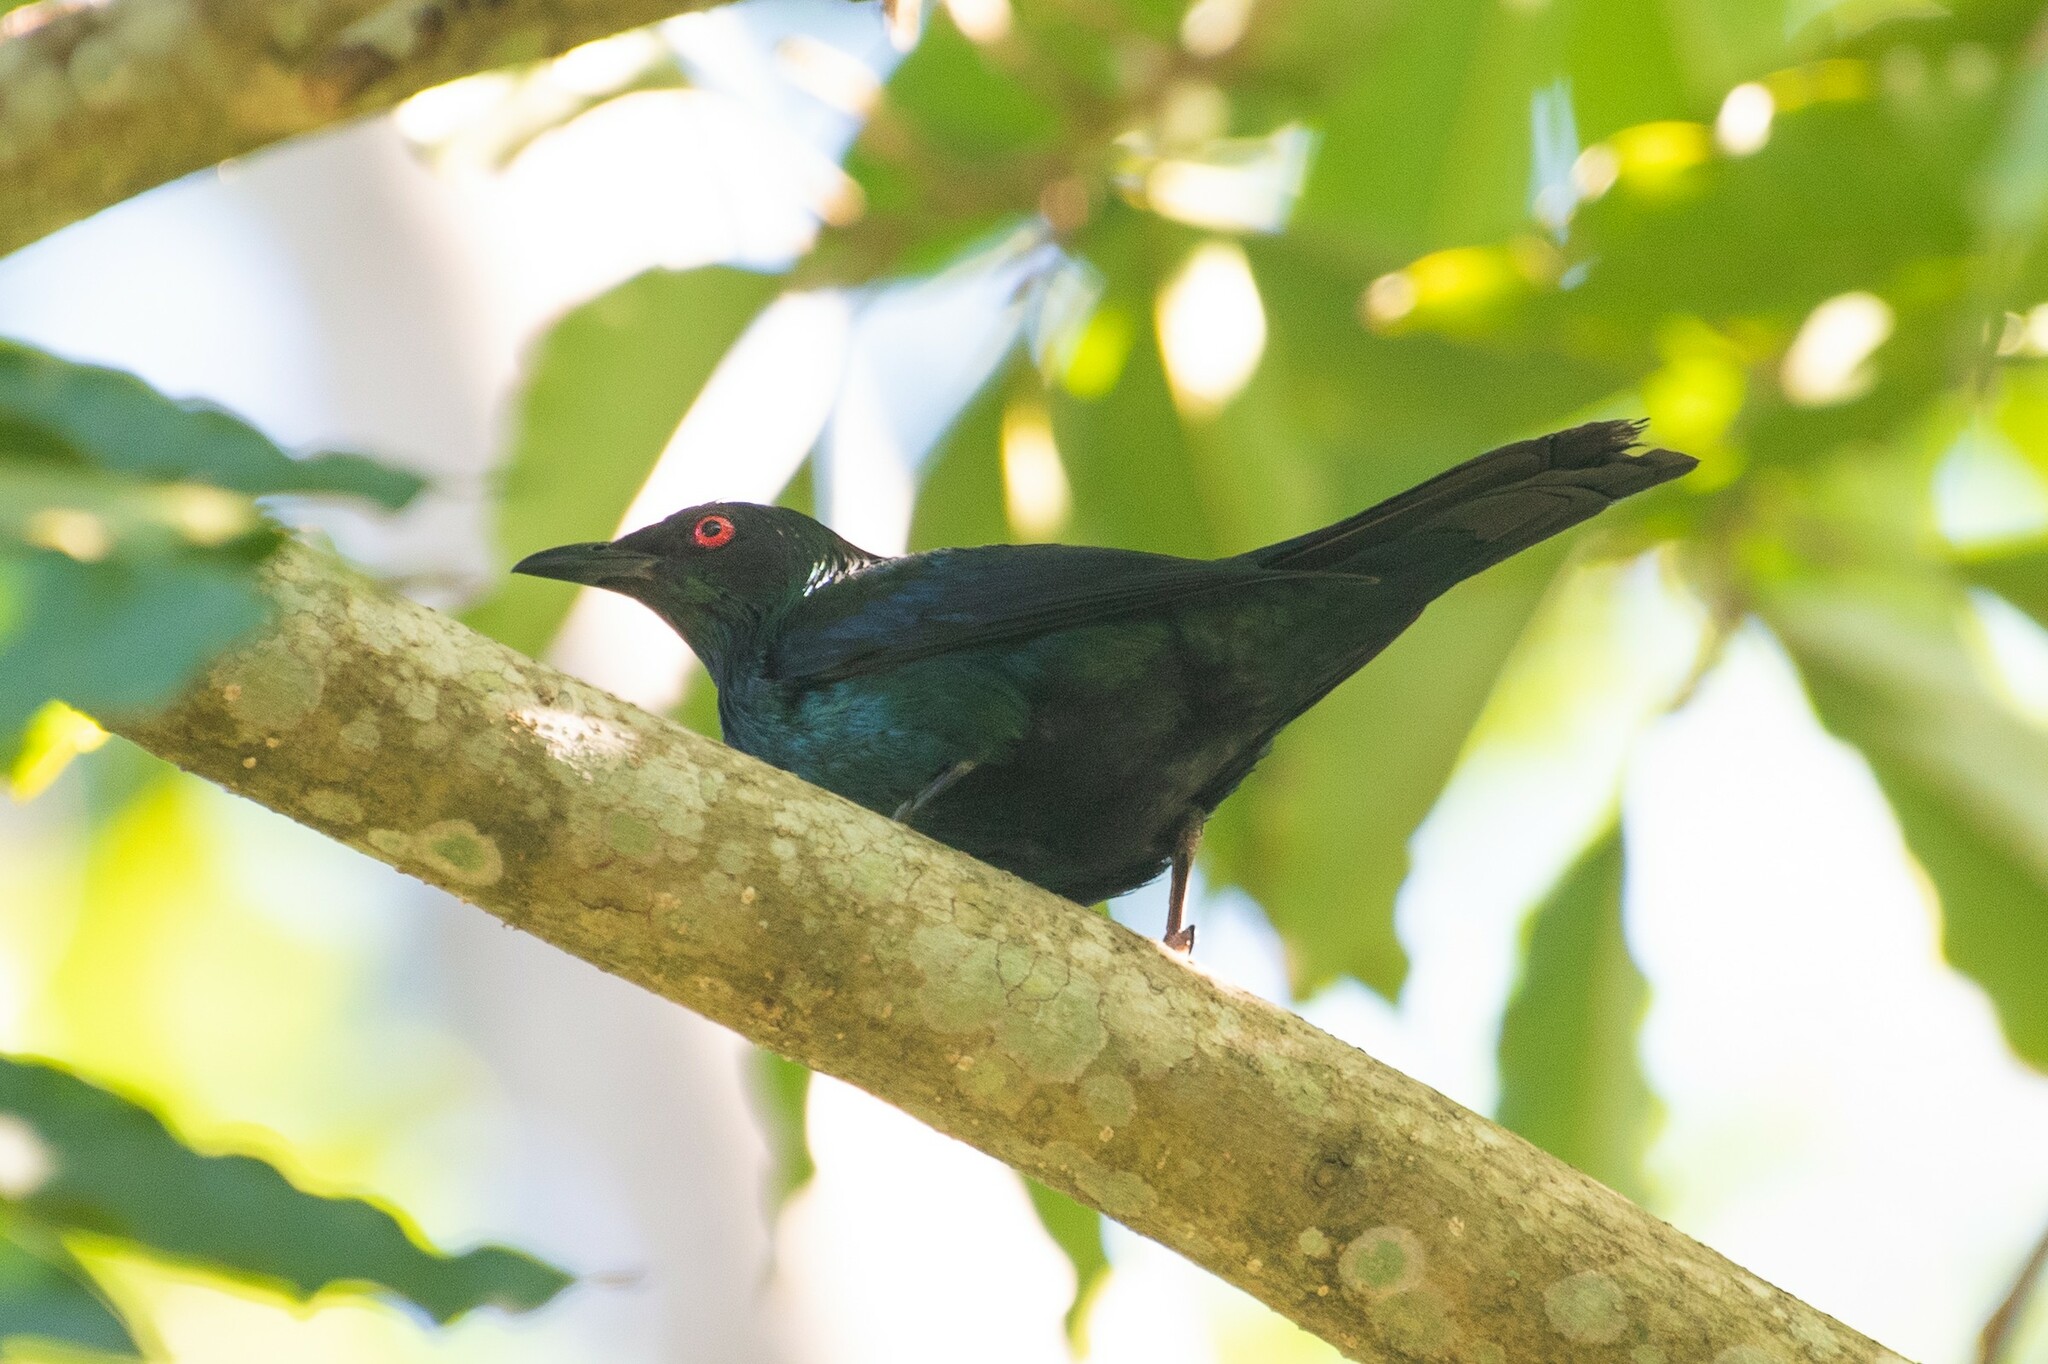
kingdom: Animalia
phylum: Chordata
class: Aves
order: Passeriformes
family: Sturnidae
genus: Aplonis
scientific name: Aplonis metallica
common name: Metallic starling
